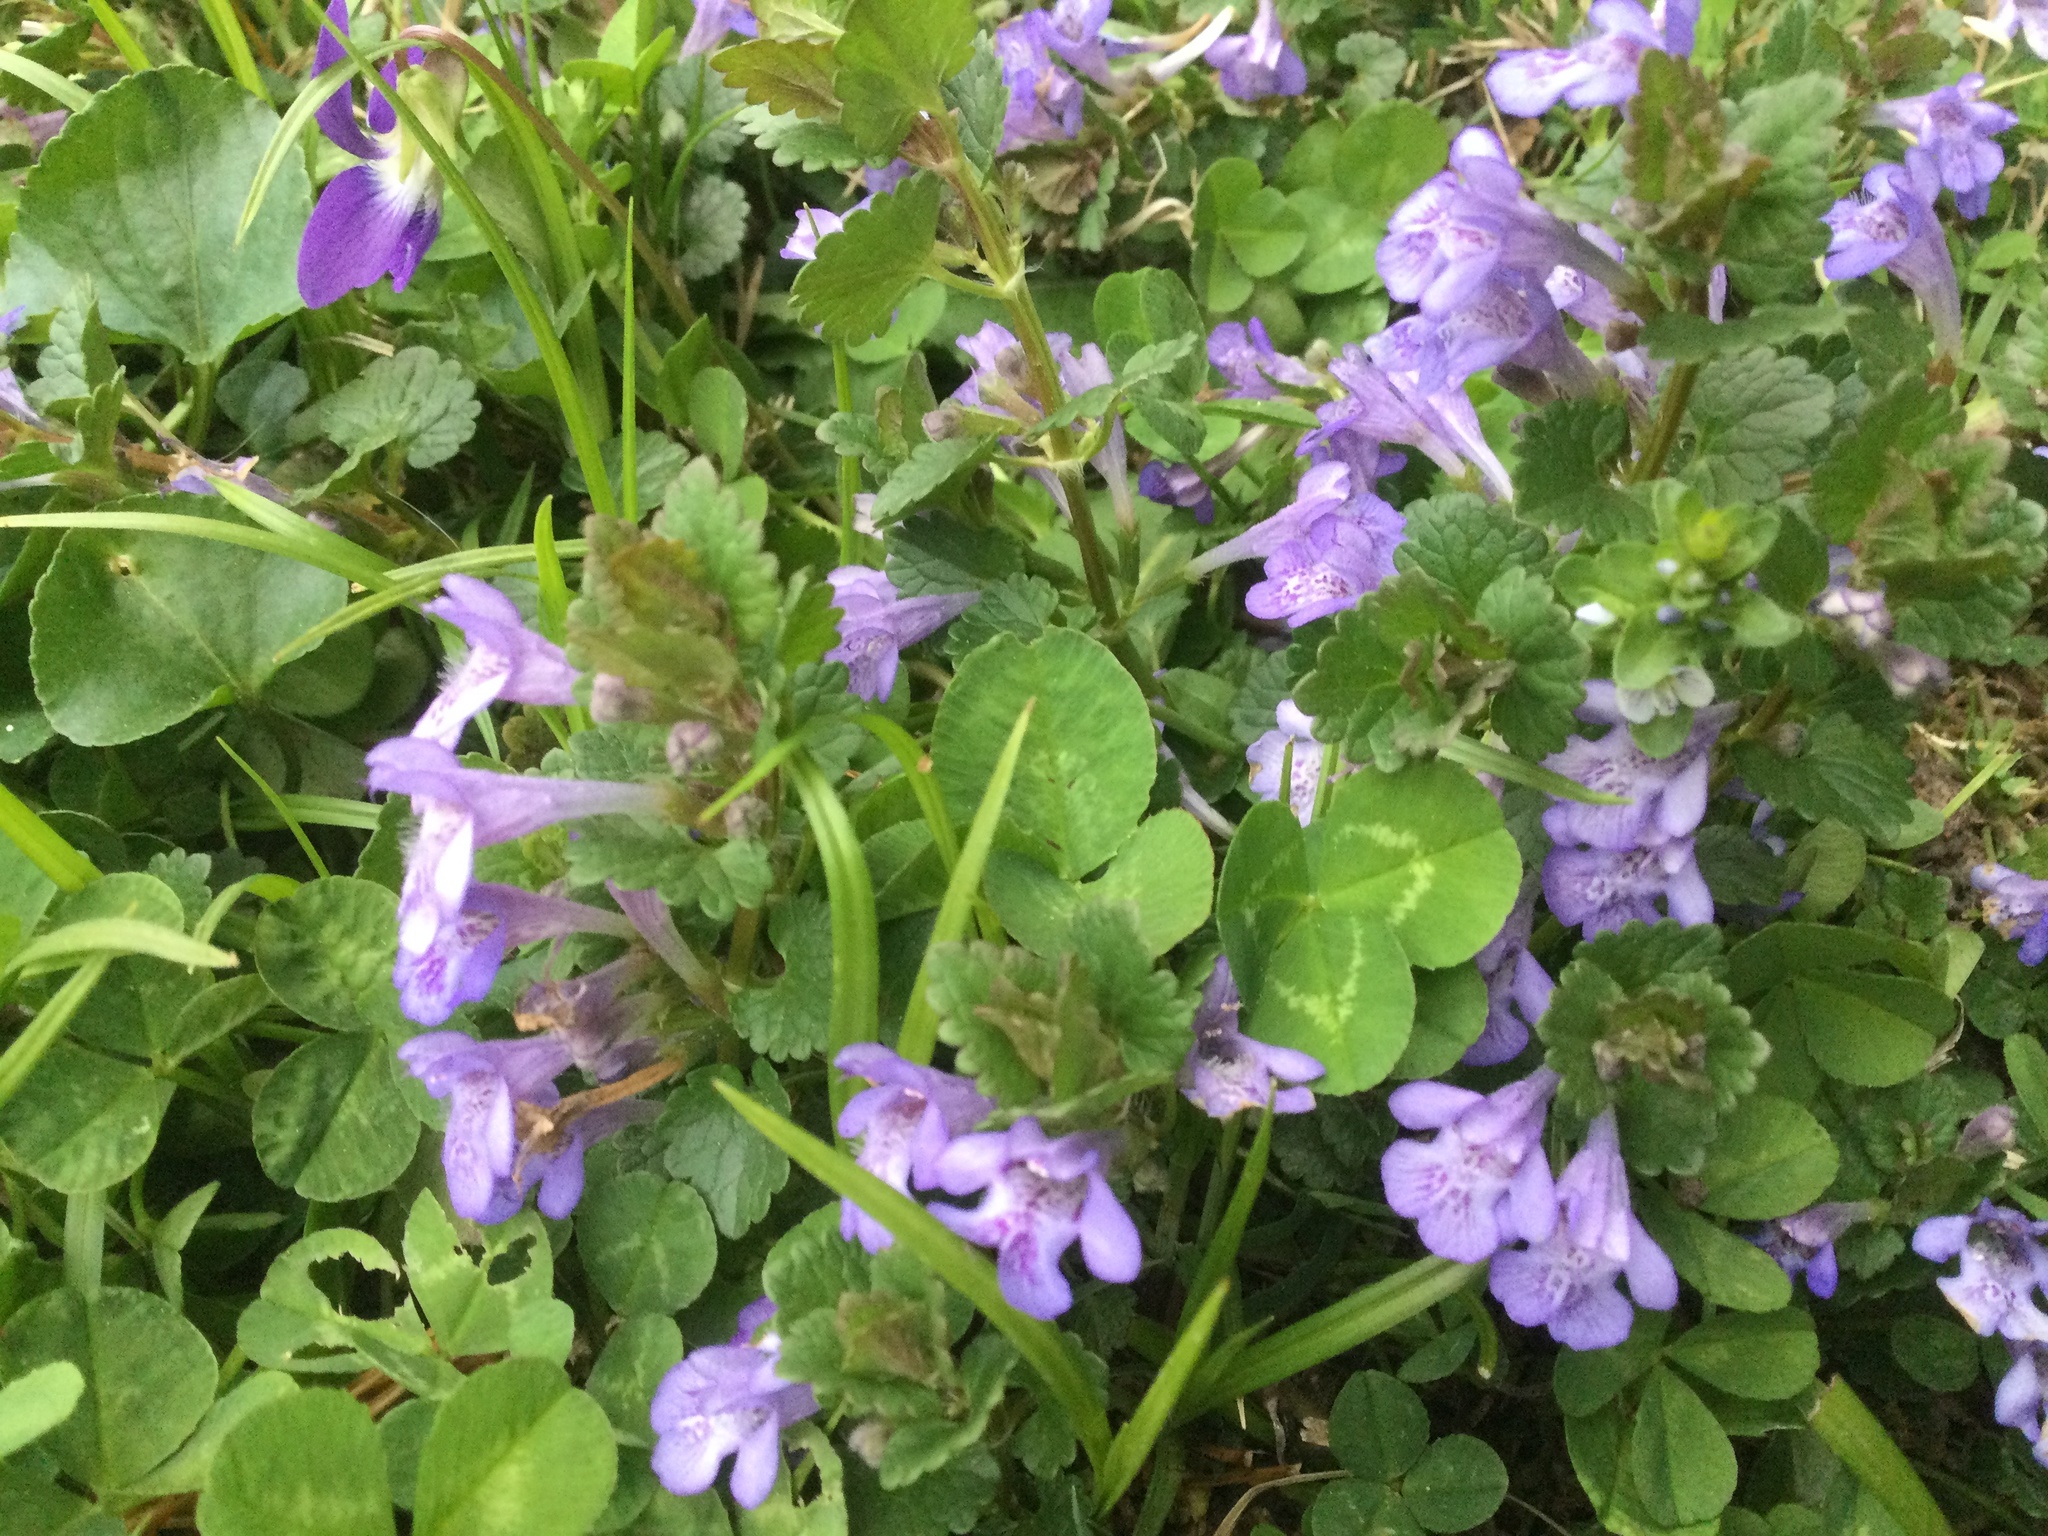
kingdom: Plantae
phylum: Tracheophyta
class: Magnoliopsida
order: Lamiales
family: Lamiaceae
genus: Glechoma
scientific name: Glechoma hederacea
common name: Ground ivy
